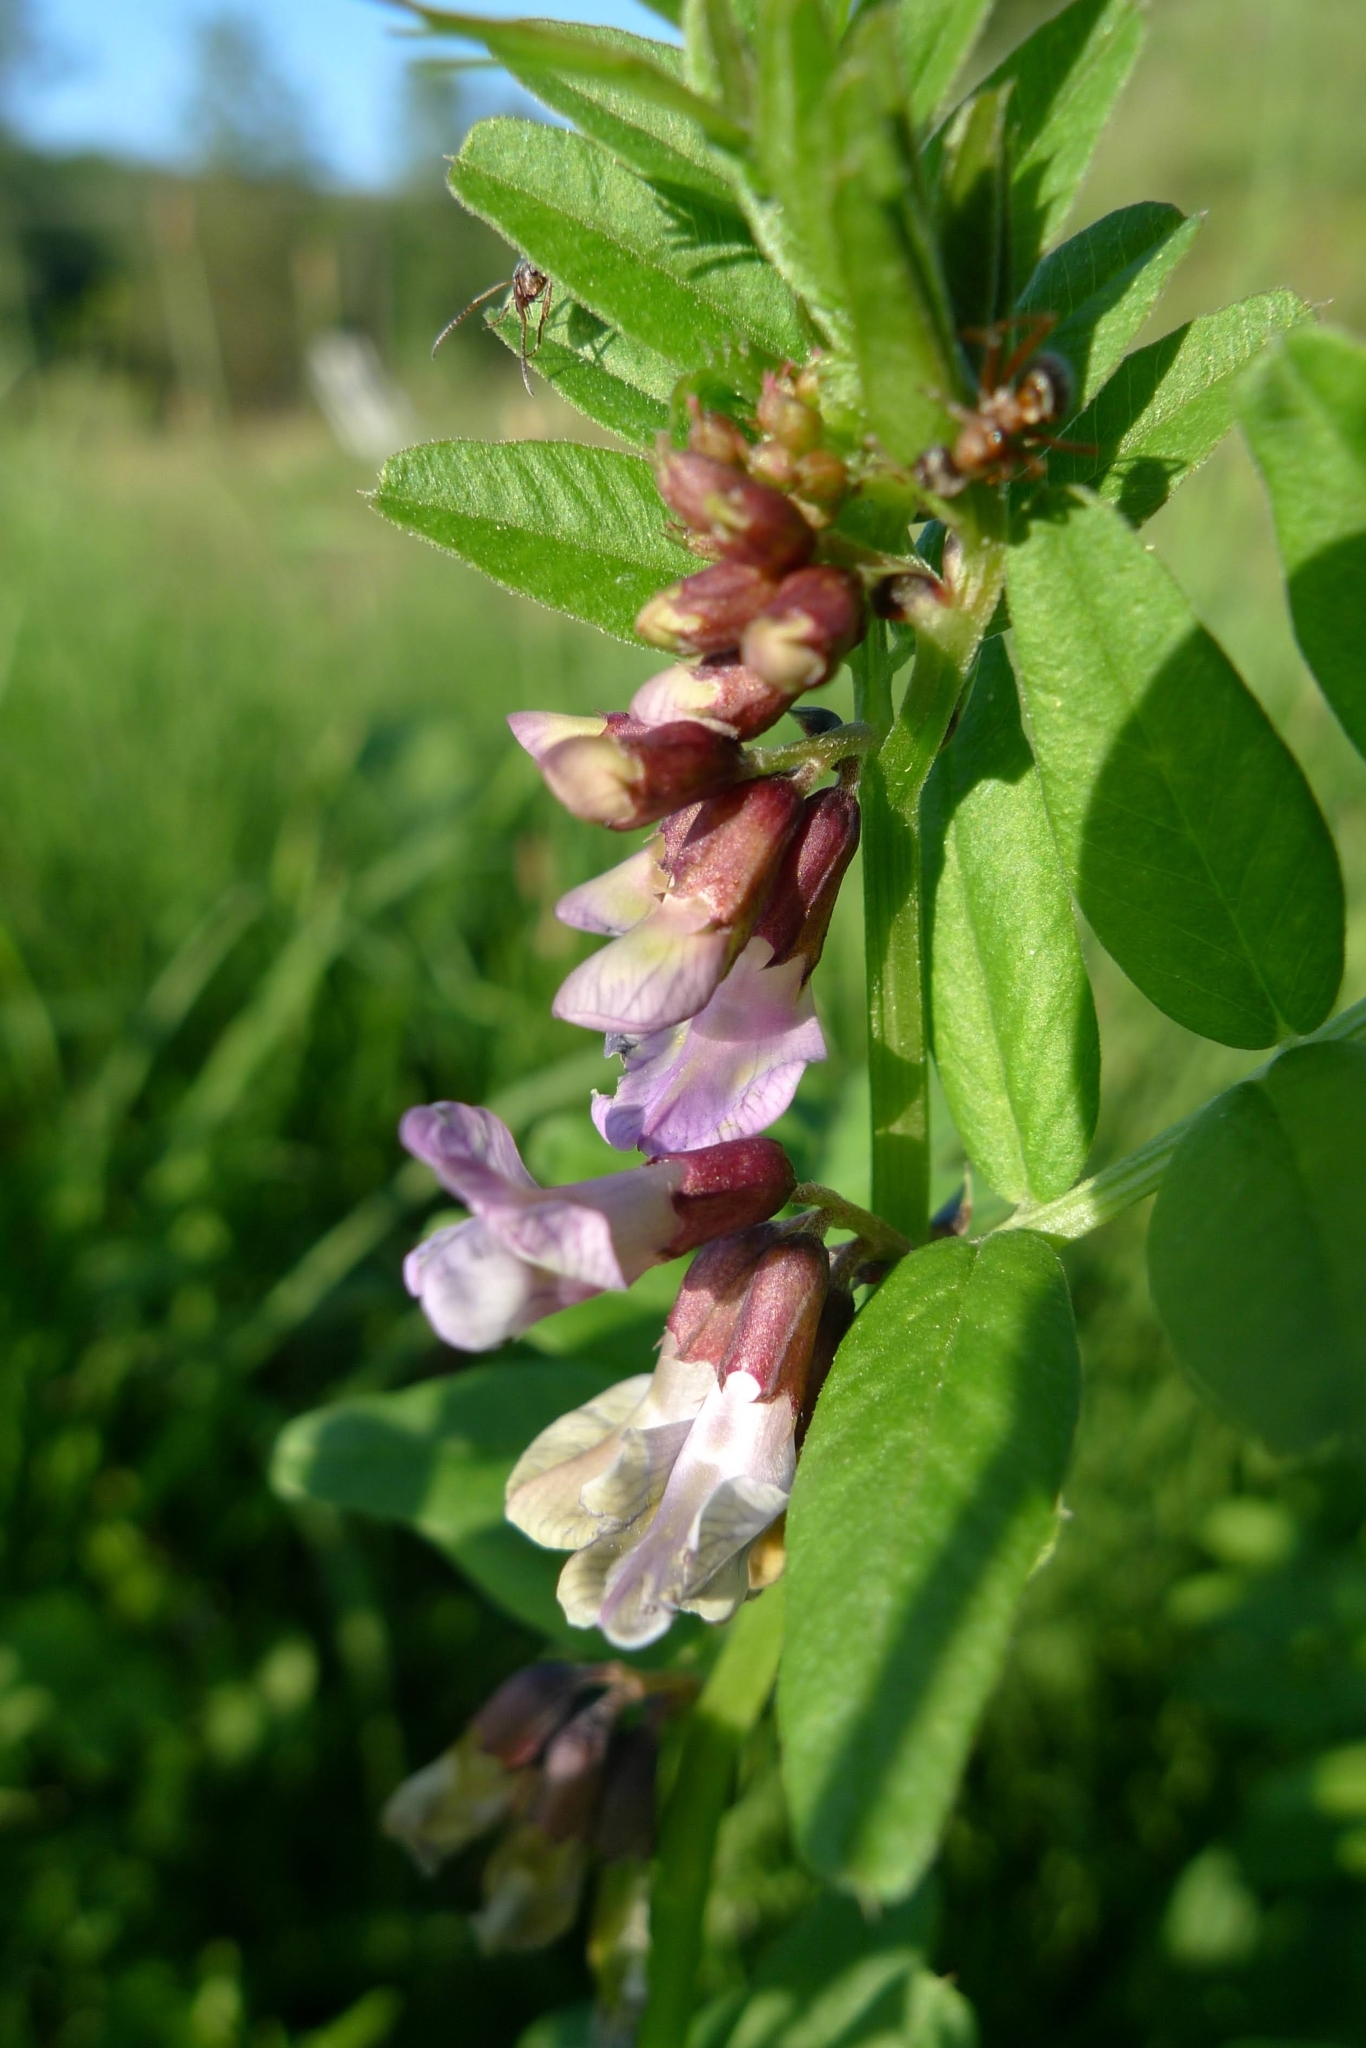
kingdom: Plantae
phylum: Tracheophyta
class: Magnoliopsida
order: Fabales
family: Fabaceae
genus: Vicia
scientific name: Vicia sepium
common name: Bush vetch
